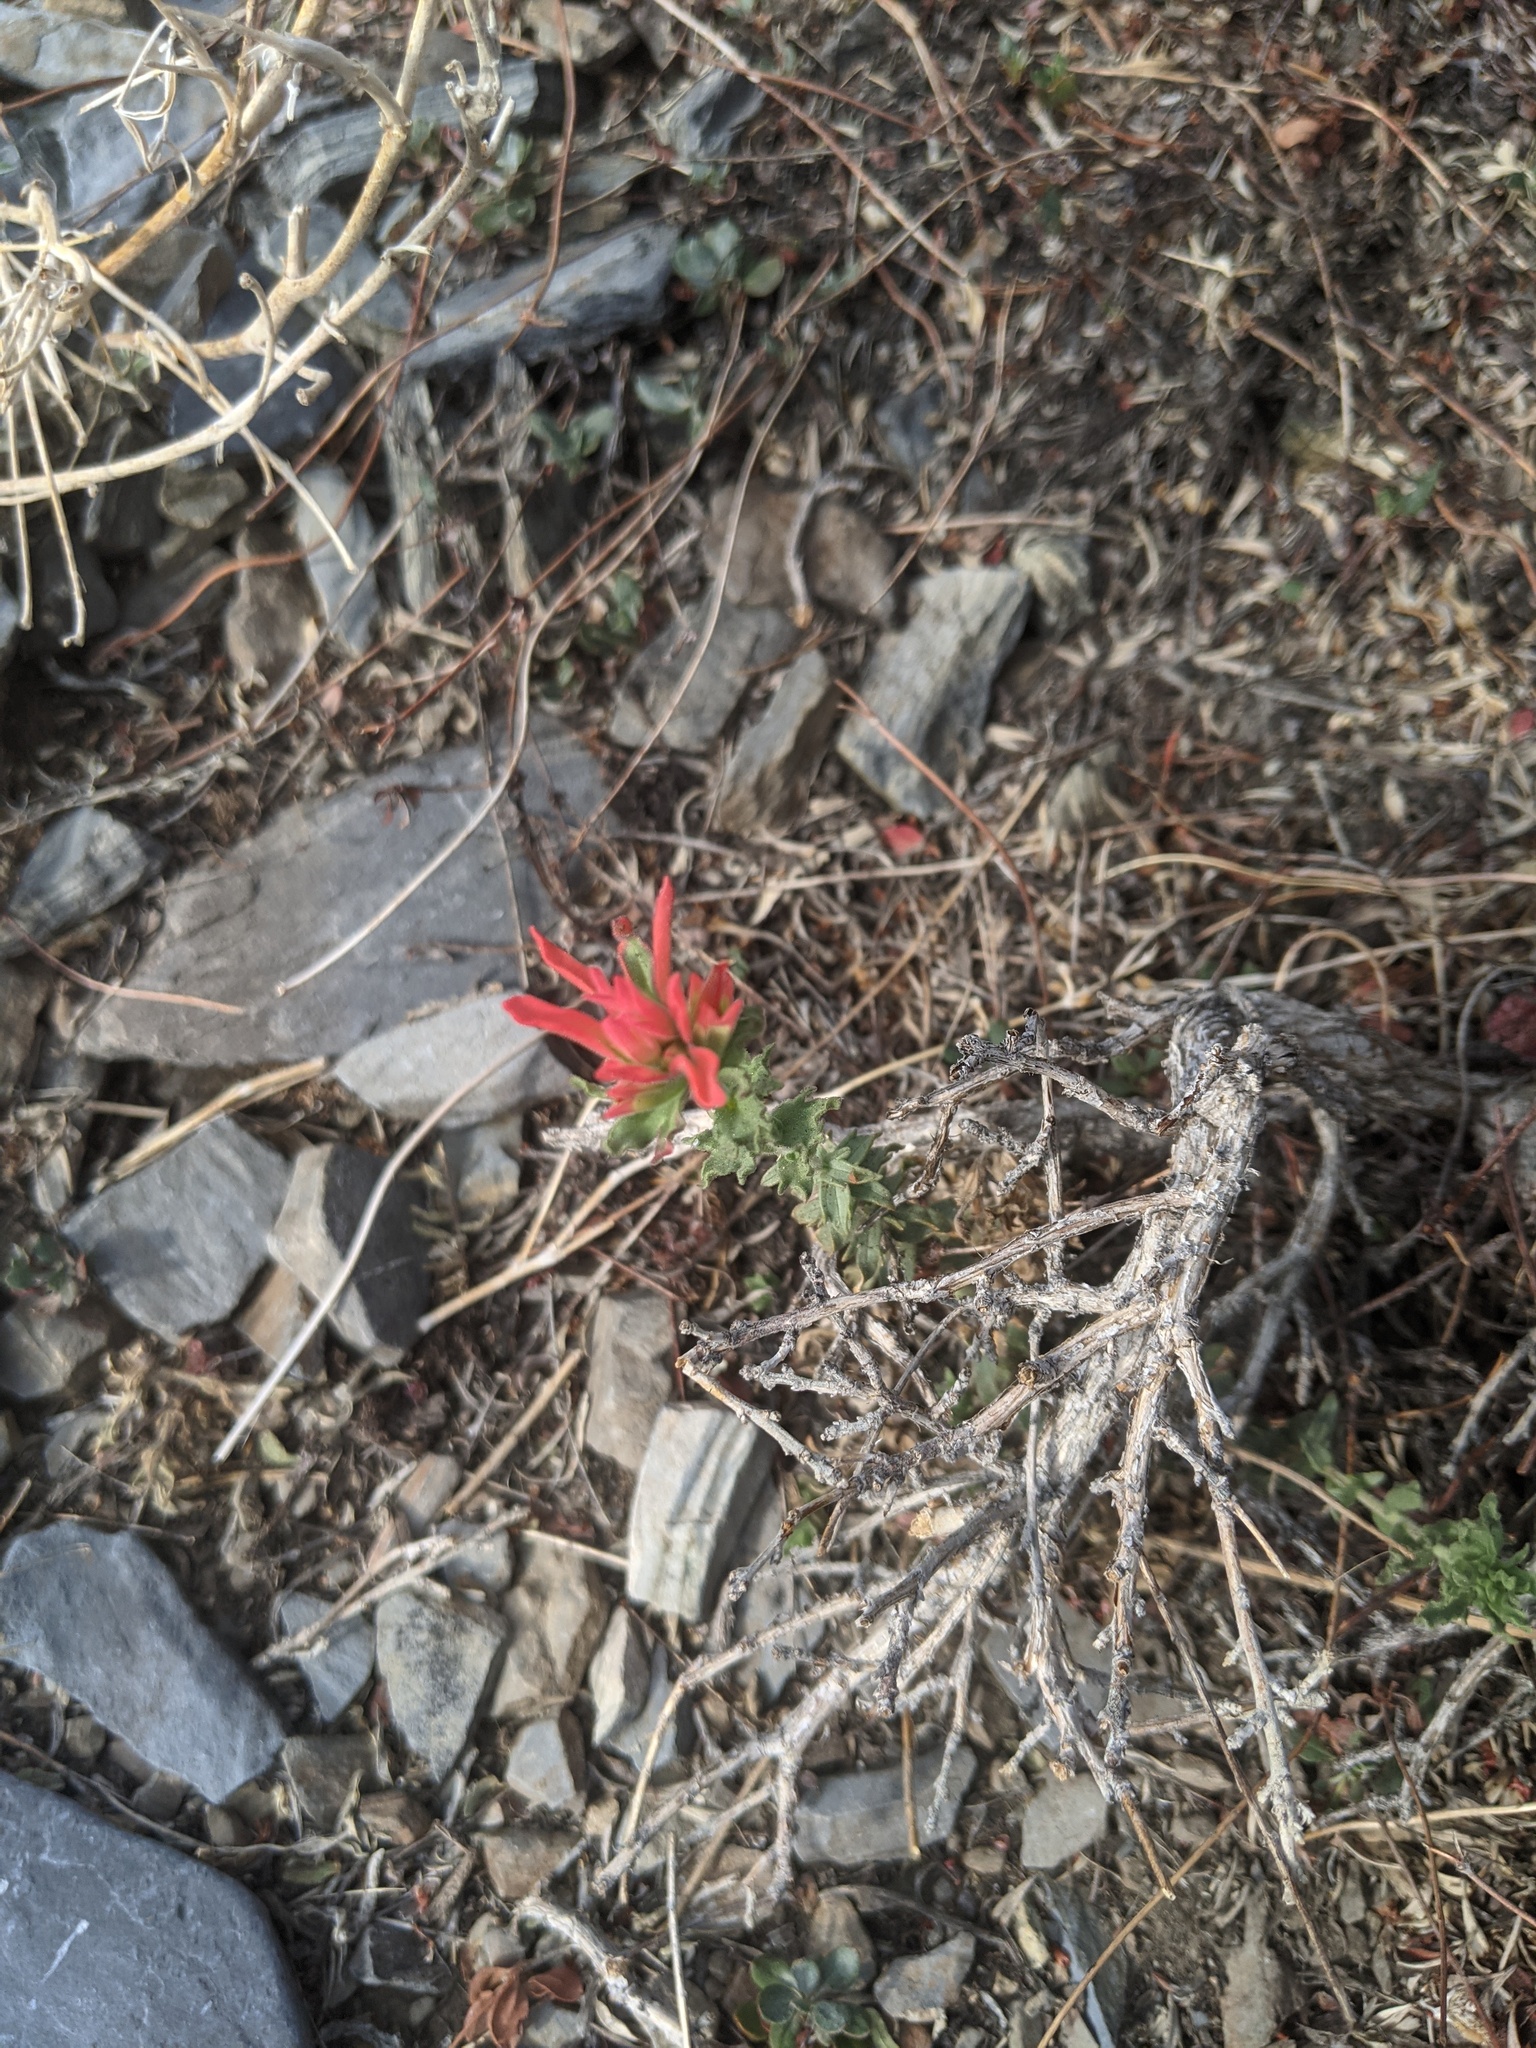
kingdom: Plantae
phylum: Tracheophyta
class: Magnoliopsida
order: Lamiales
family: Orobanchaceae
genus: Castilleja
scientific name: Castilleja martini
